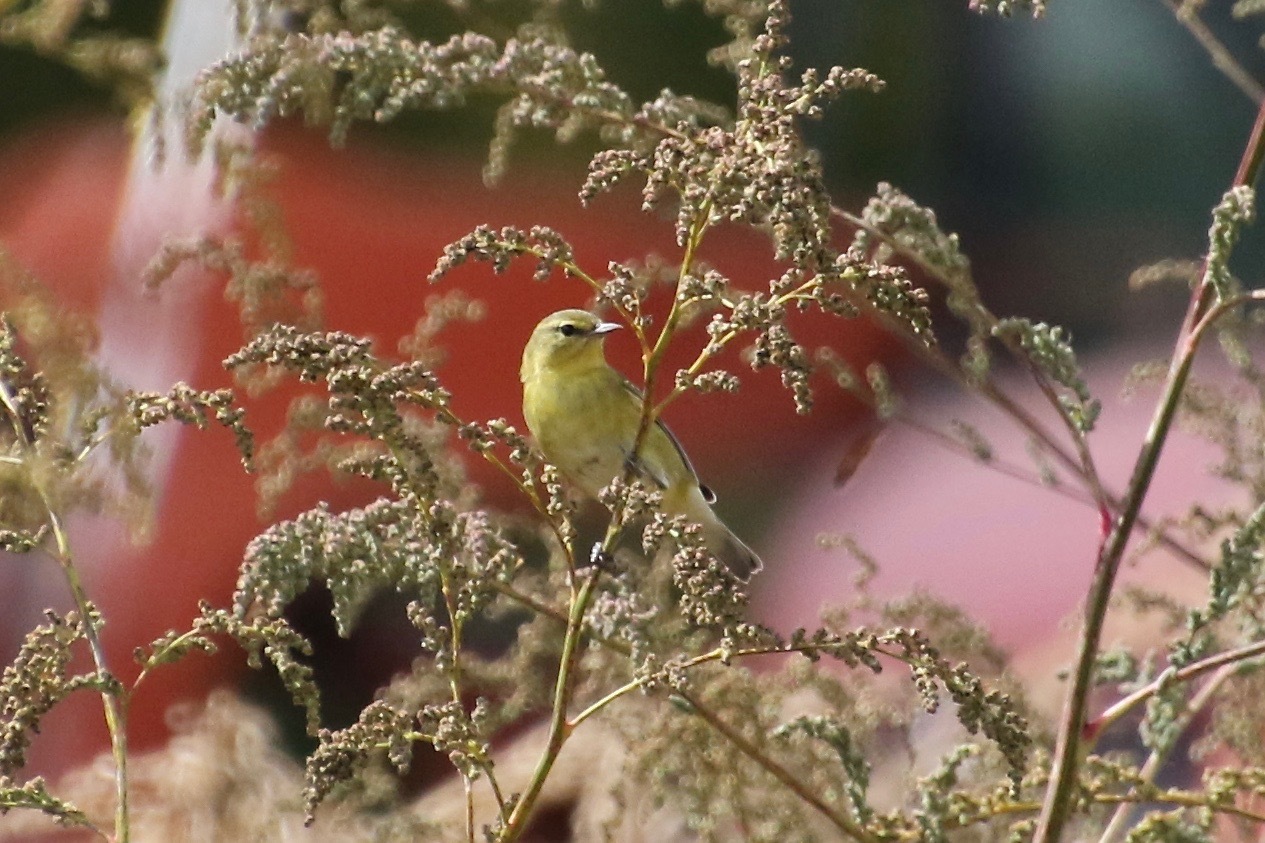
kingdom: Animalia
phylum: Chordata
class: Aves
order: Passeriformes
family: Parulidae
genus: Leiothlypis
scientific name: Leiothlypis peregrina
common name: Tennessee warbler
